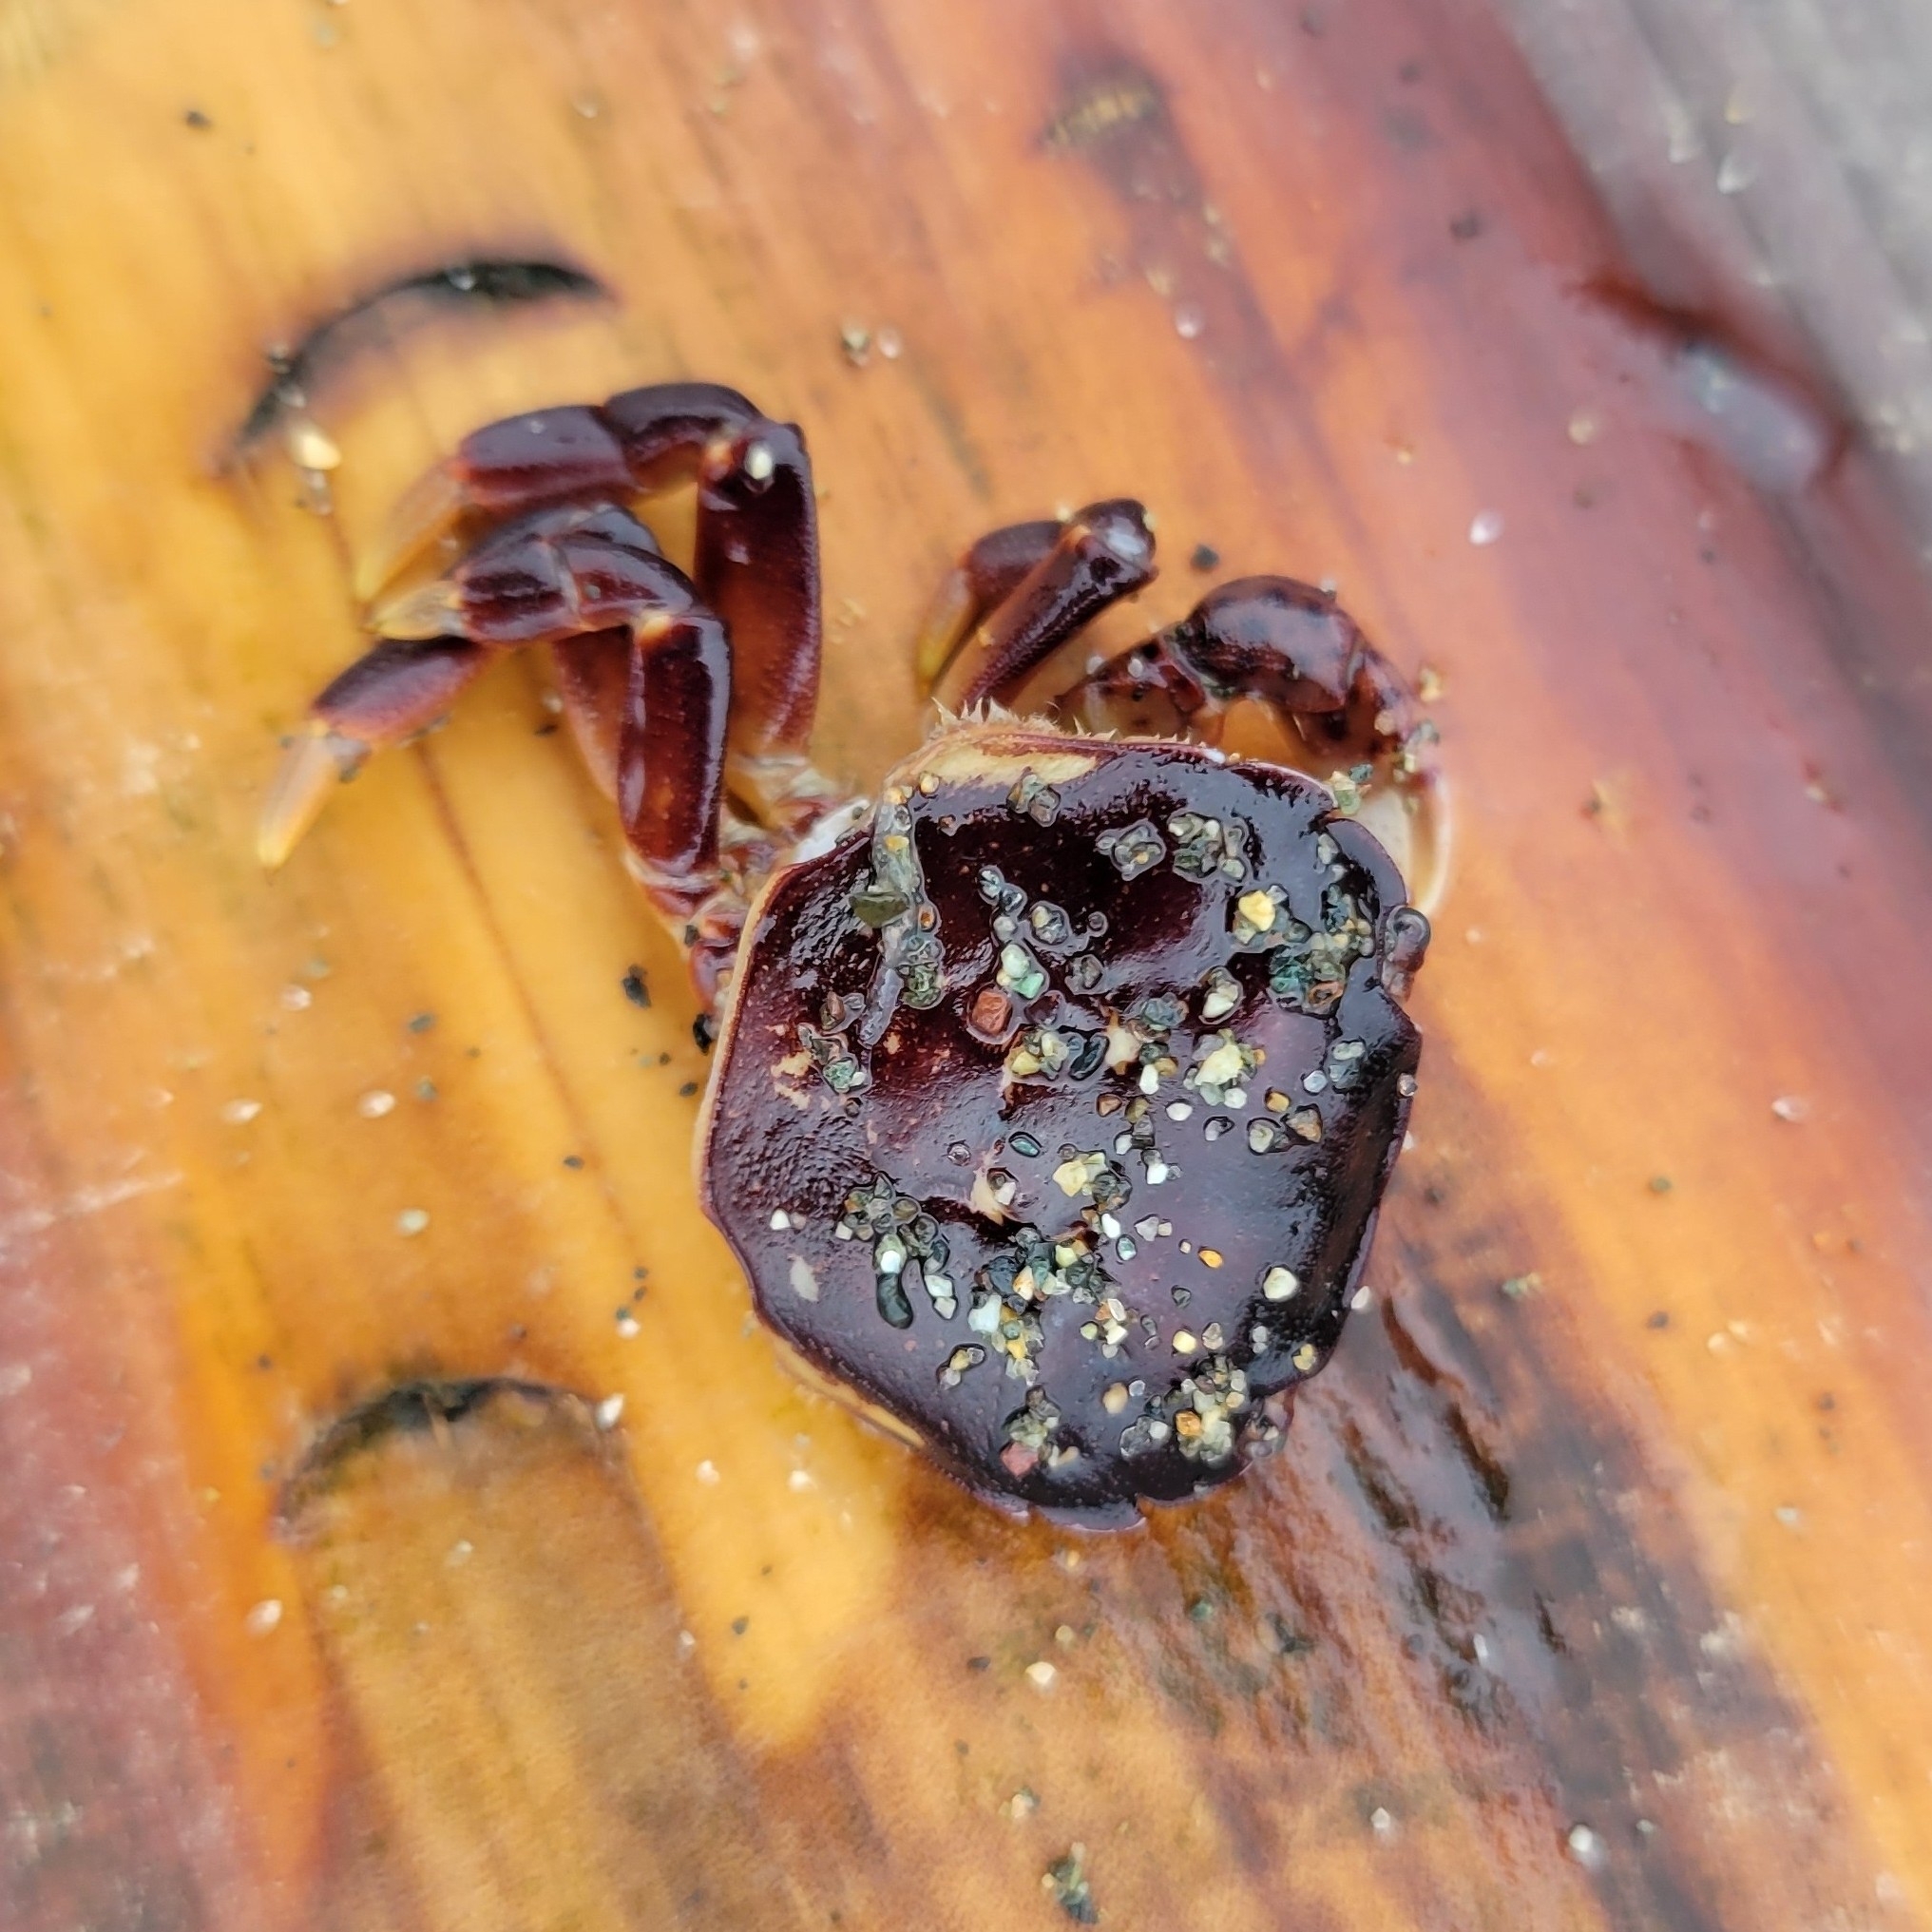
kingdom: Animalia
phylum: Arthropoda
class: Malacostraca
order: Decapoda
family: Varunidae
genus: Hemigrapsus
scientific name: Hemigrapsus nudus
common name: Purple shore crab
